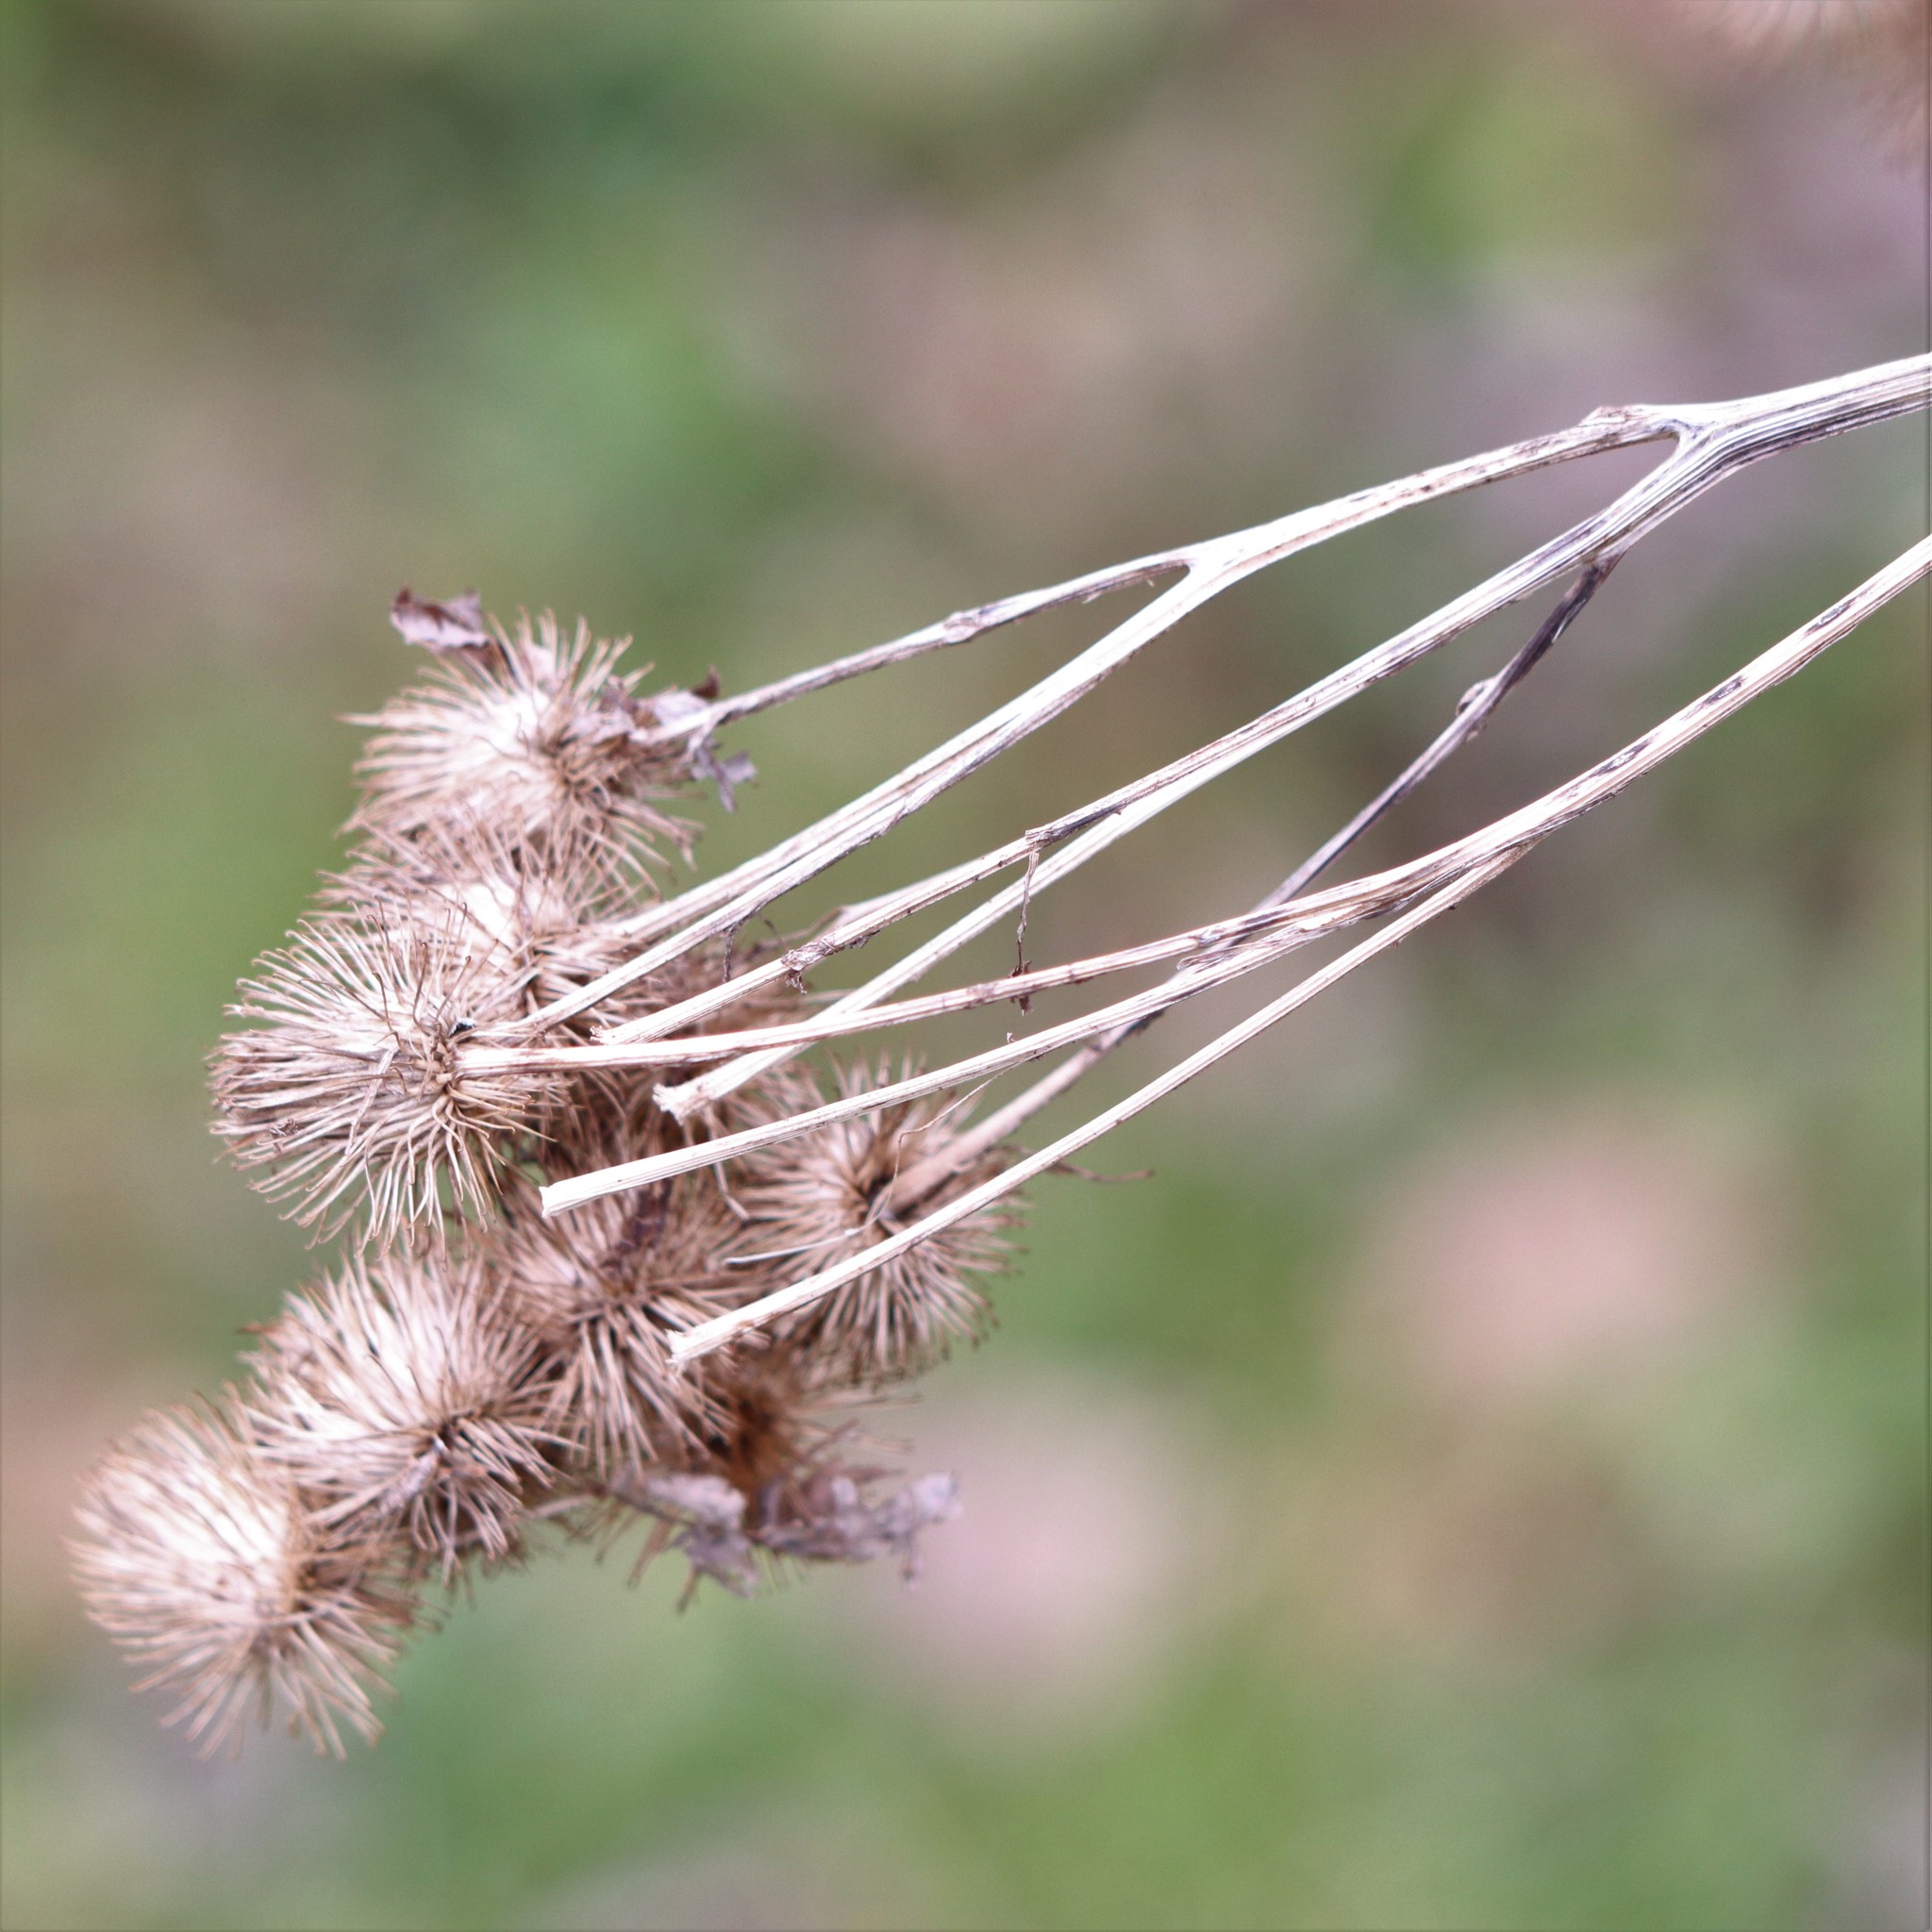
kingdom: Plantae
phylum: Tracheophyta
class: Magnoliopsida
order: Asterales
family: Asteraceae
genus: Arctium
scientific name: Arctium lappa
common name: Greater burdock
